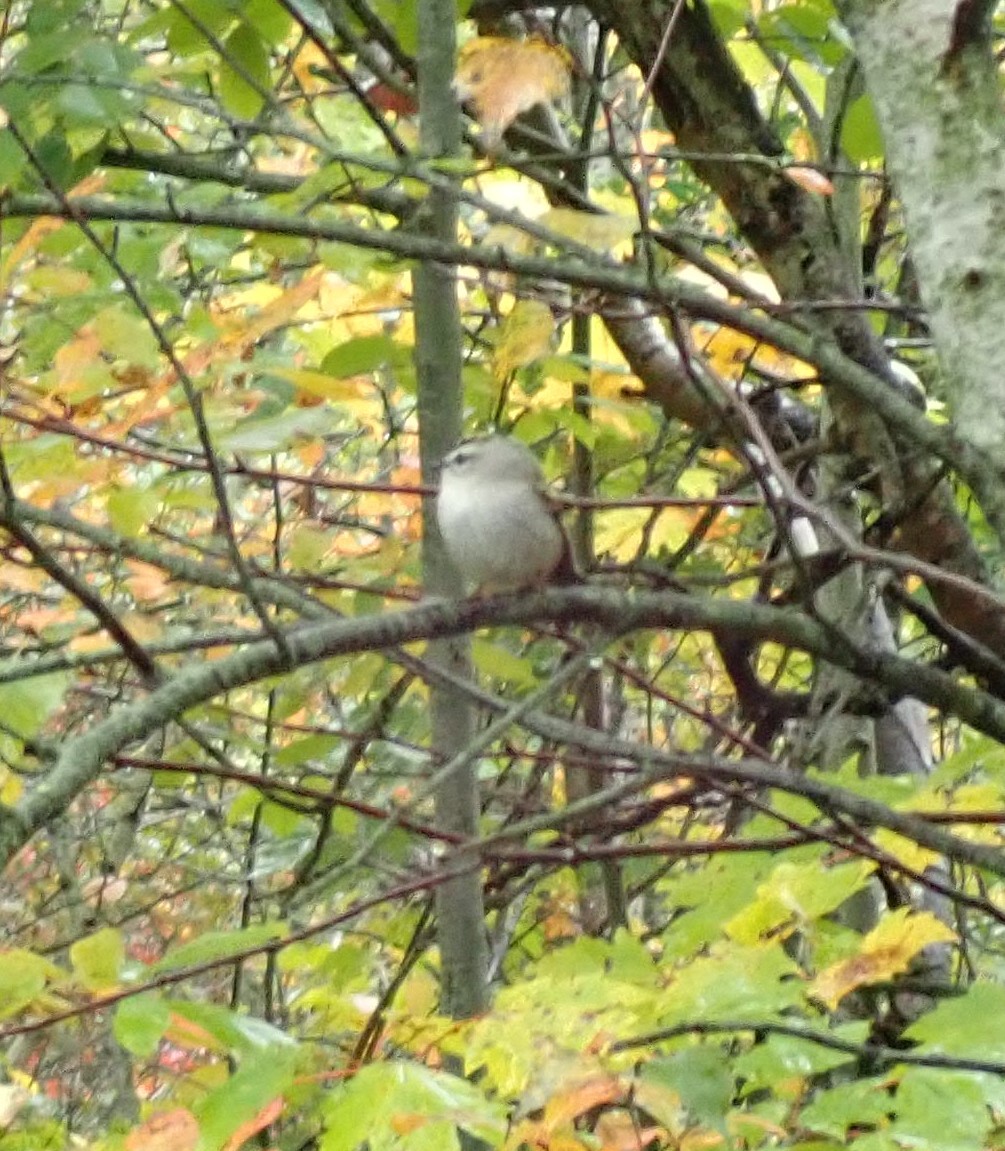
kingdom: Animalia
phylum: Chordata
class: Aves
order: Passeriformes
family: Regulidae
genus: Regulus
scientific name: Regulus satrapa
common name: Golden-crowned kinglet
